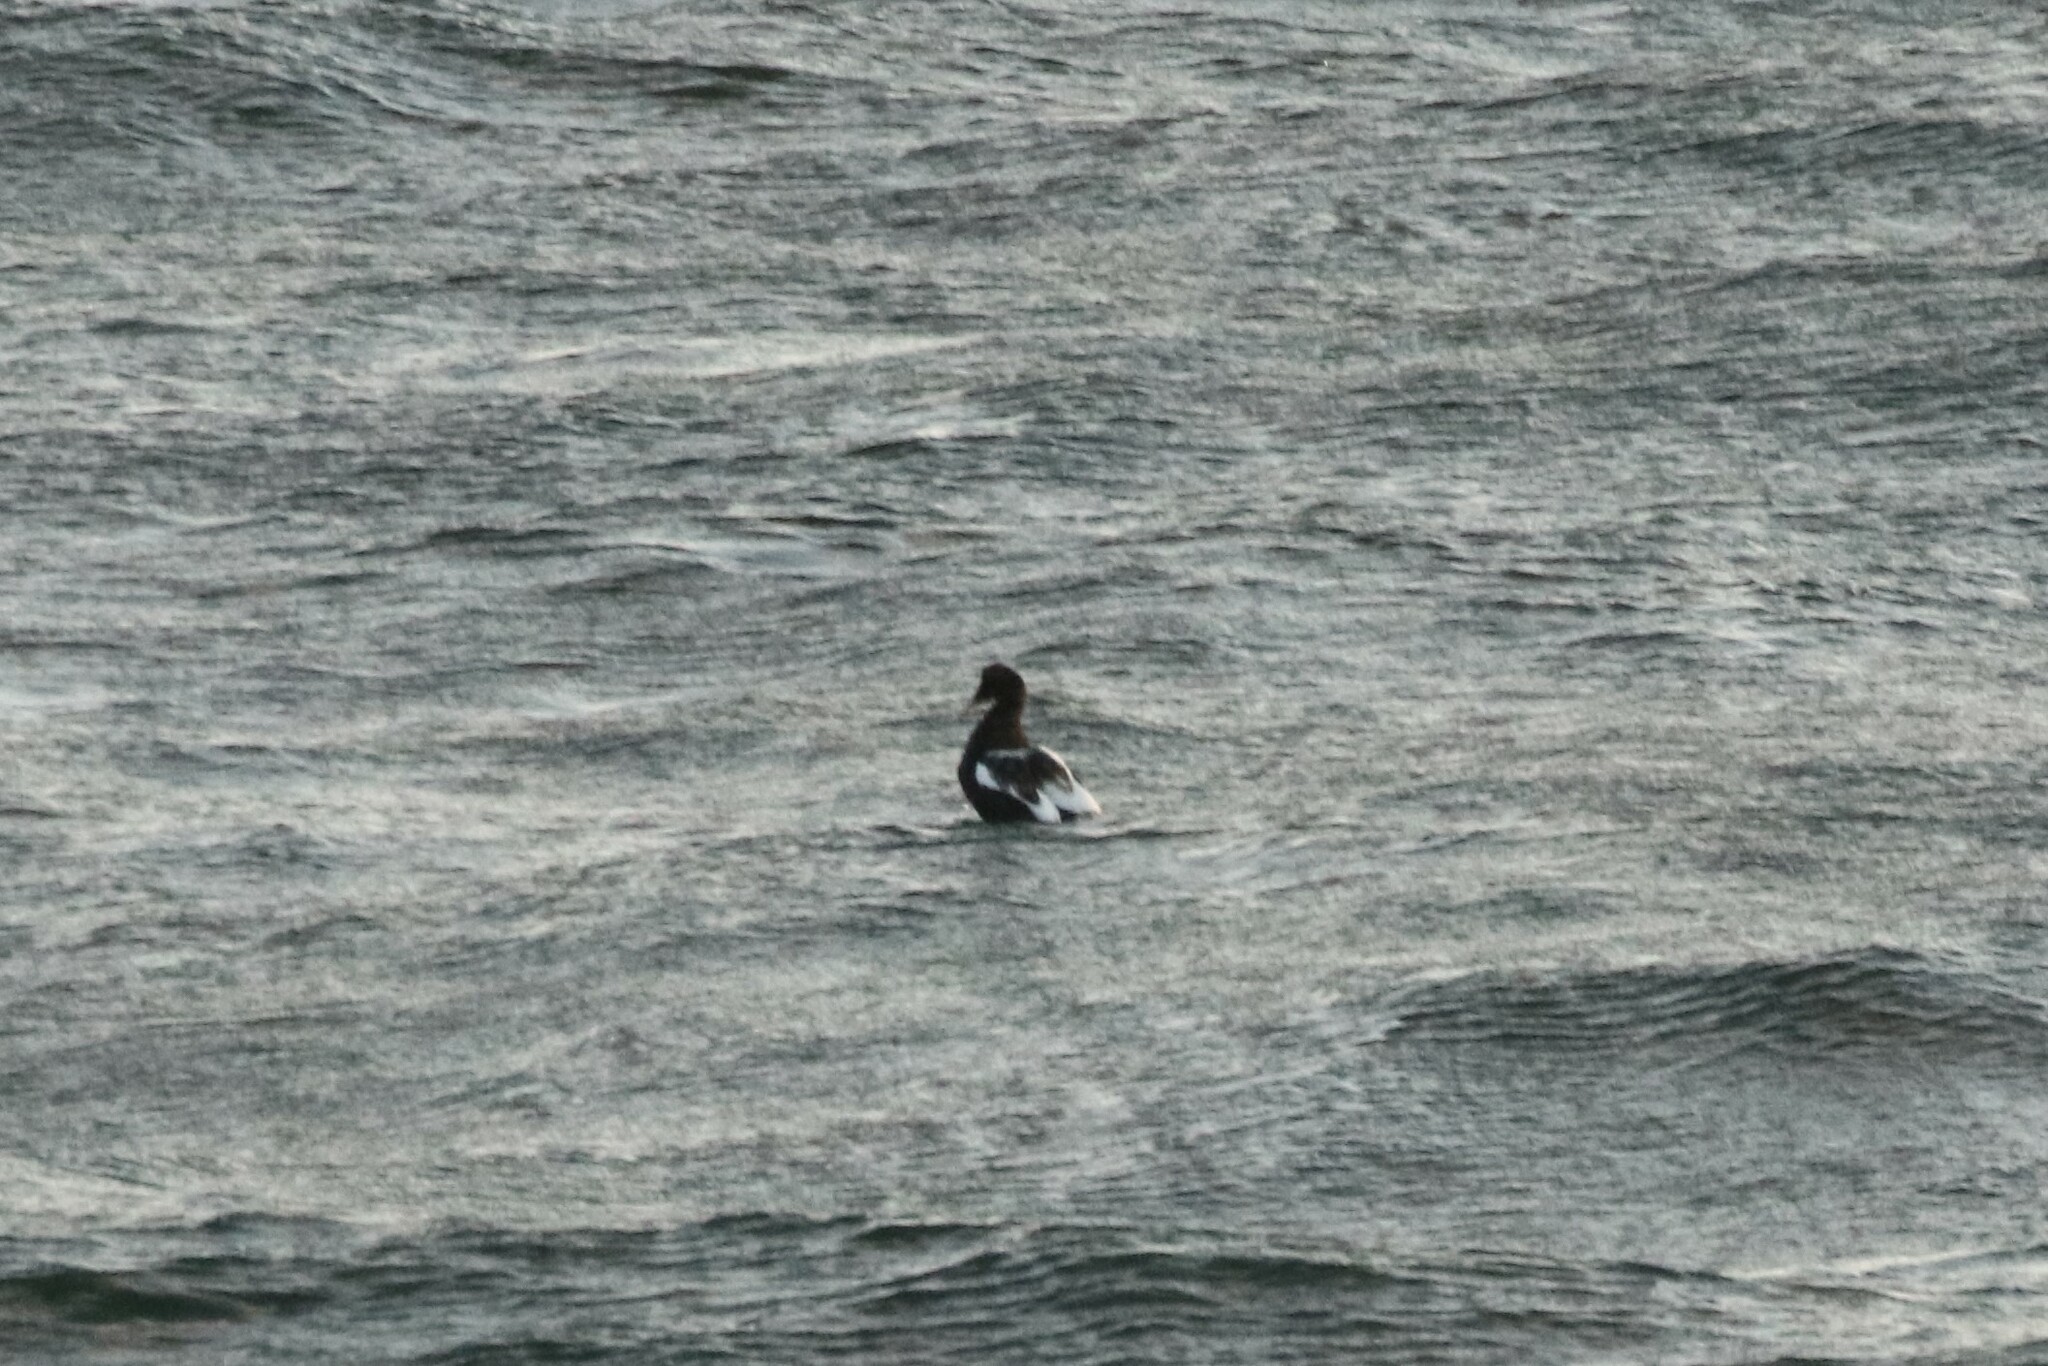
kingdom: Animalia
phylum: Chordata
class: Aves
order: Anseriformes
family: Anatidae
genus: Somateria
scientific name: Somateria mollissima
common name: Common eider
